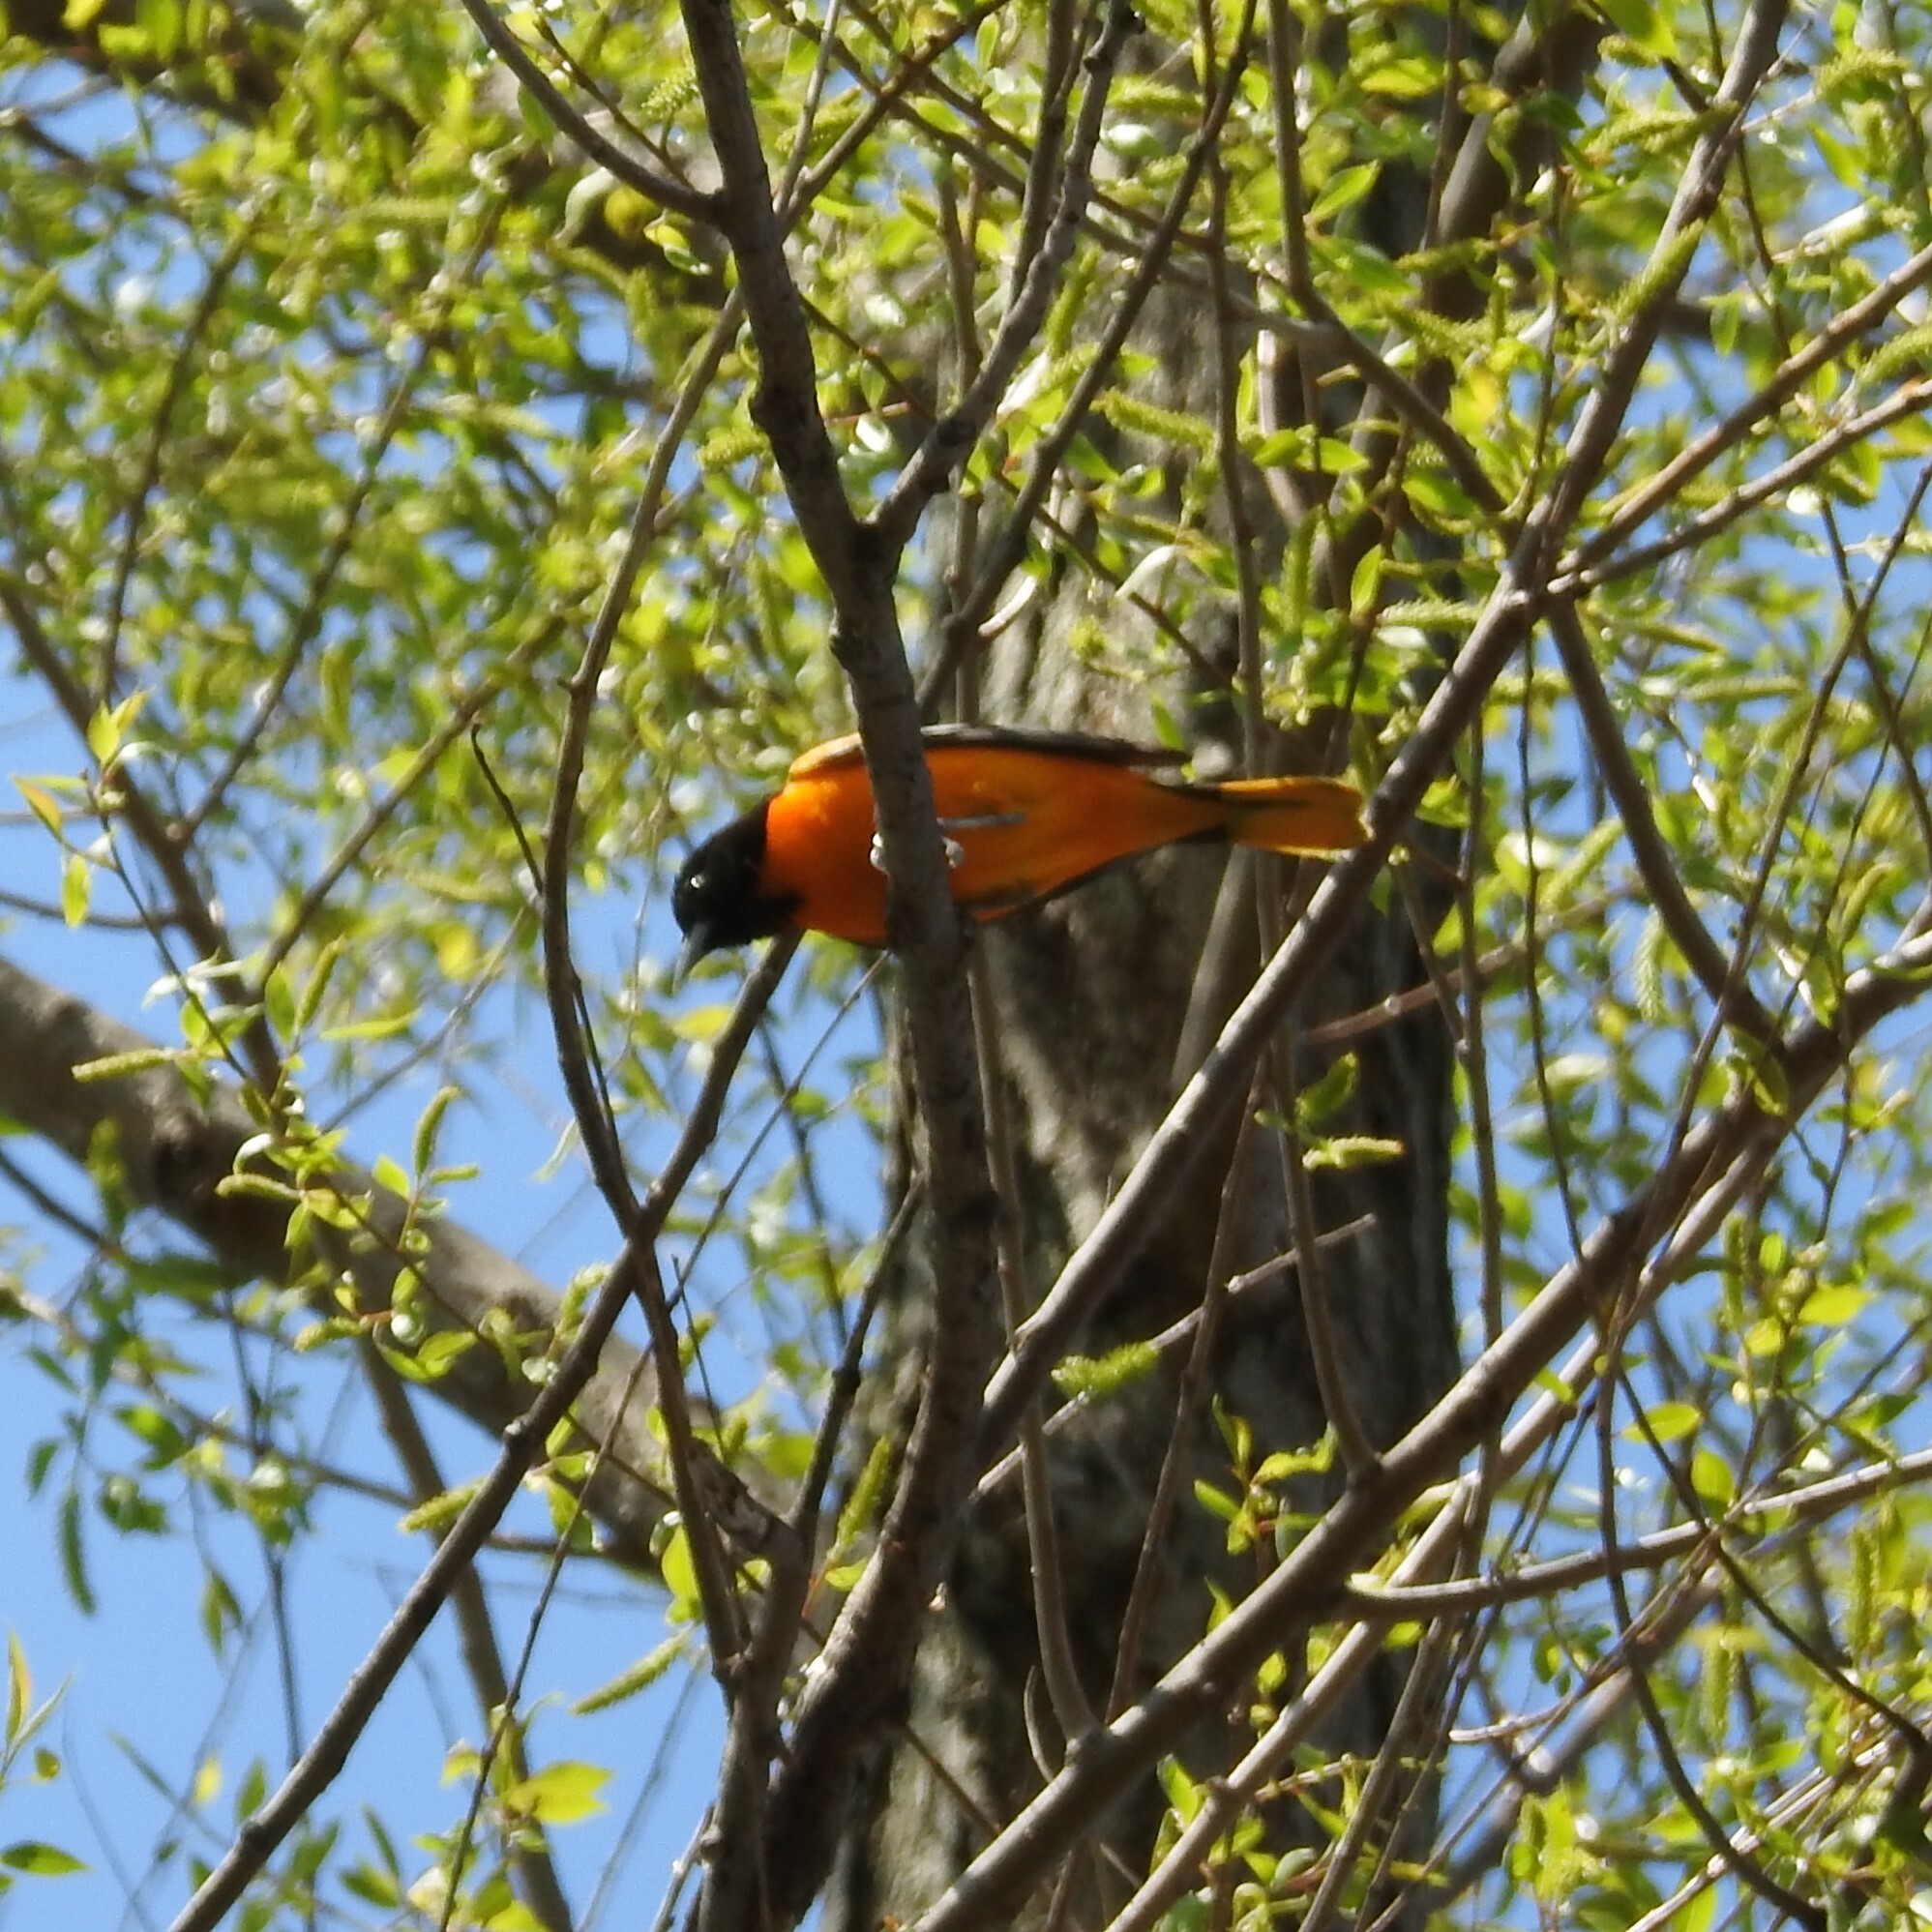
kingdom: Animalia
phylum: Chordata
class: Aves
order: Passeriformes
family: Icteridae
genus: Icterus
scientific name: Icterus galbula
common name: Baltimore oriole
